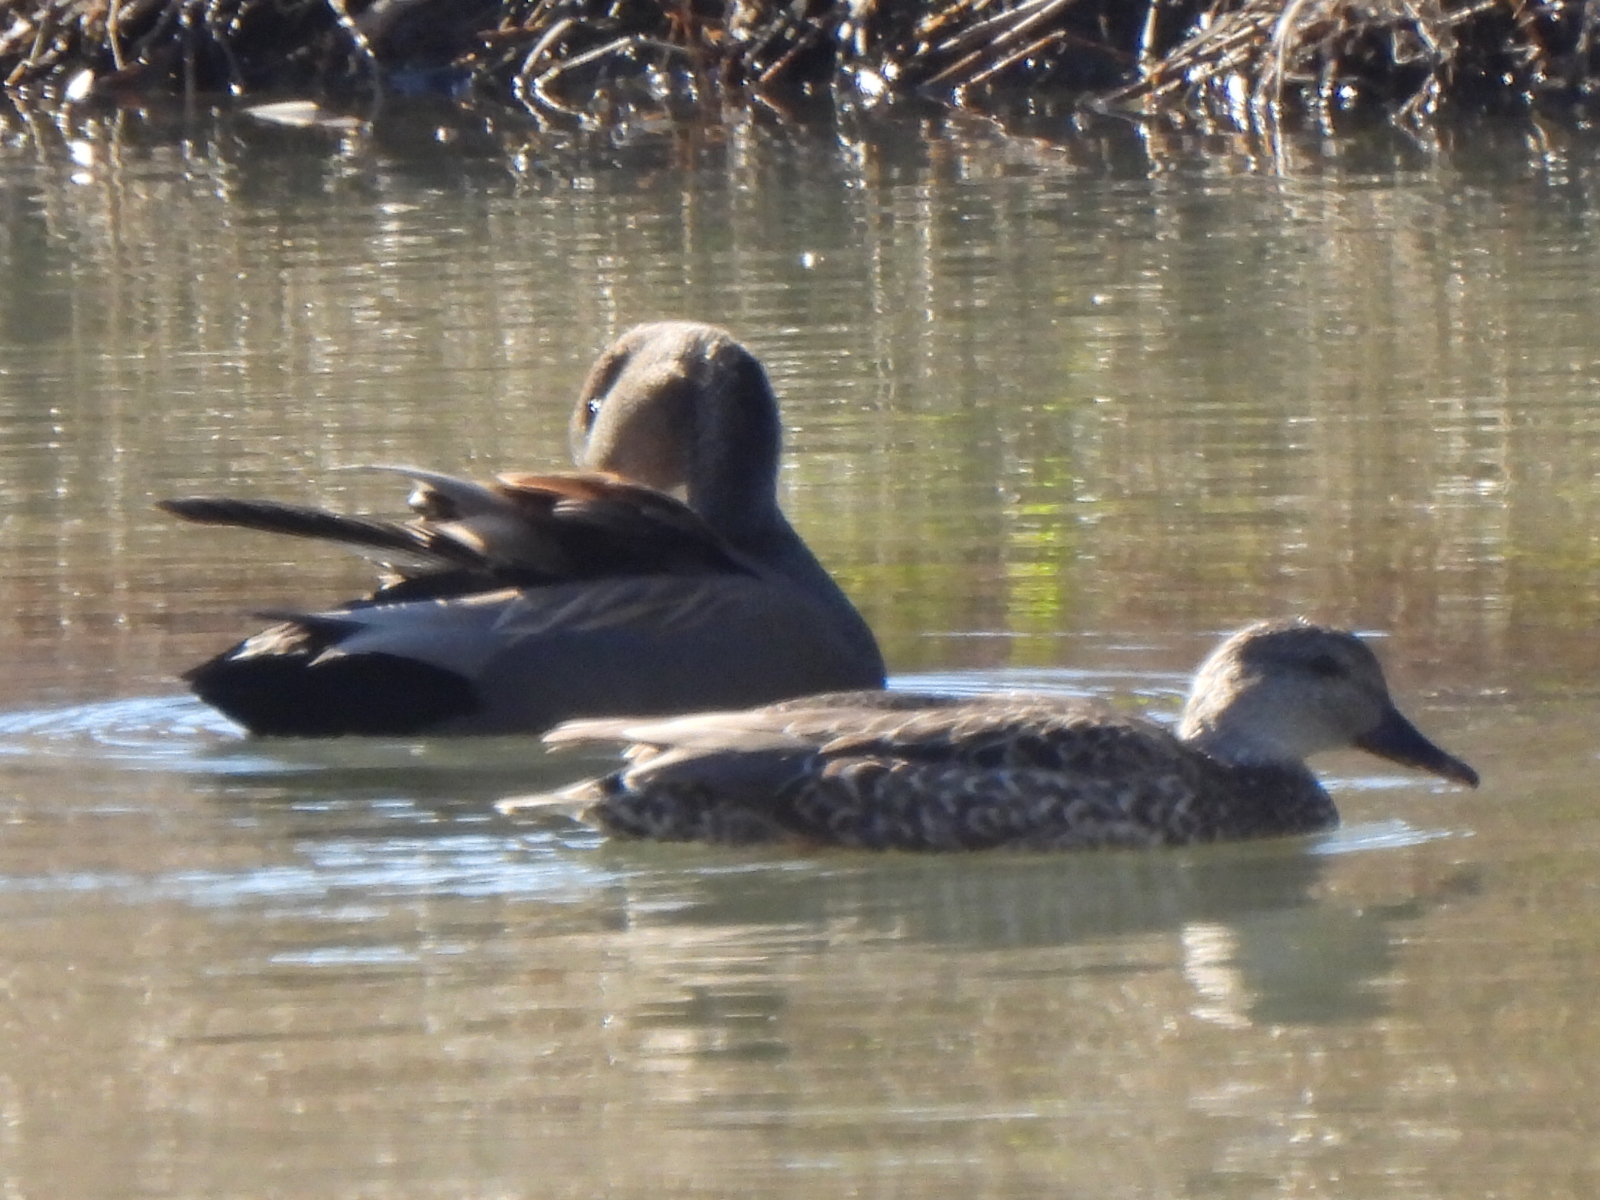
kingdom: Animalia
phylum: Chordata
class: Aves
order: Anseriformes
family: Anatidae
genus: Mareca
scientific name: Mareca strepera
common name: Gadwall
